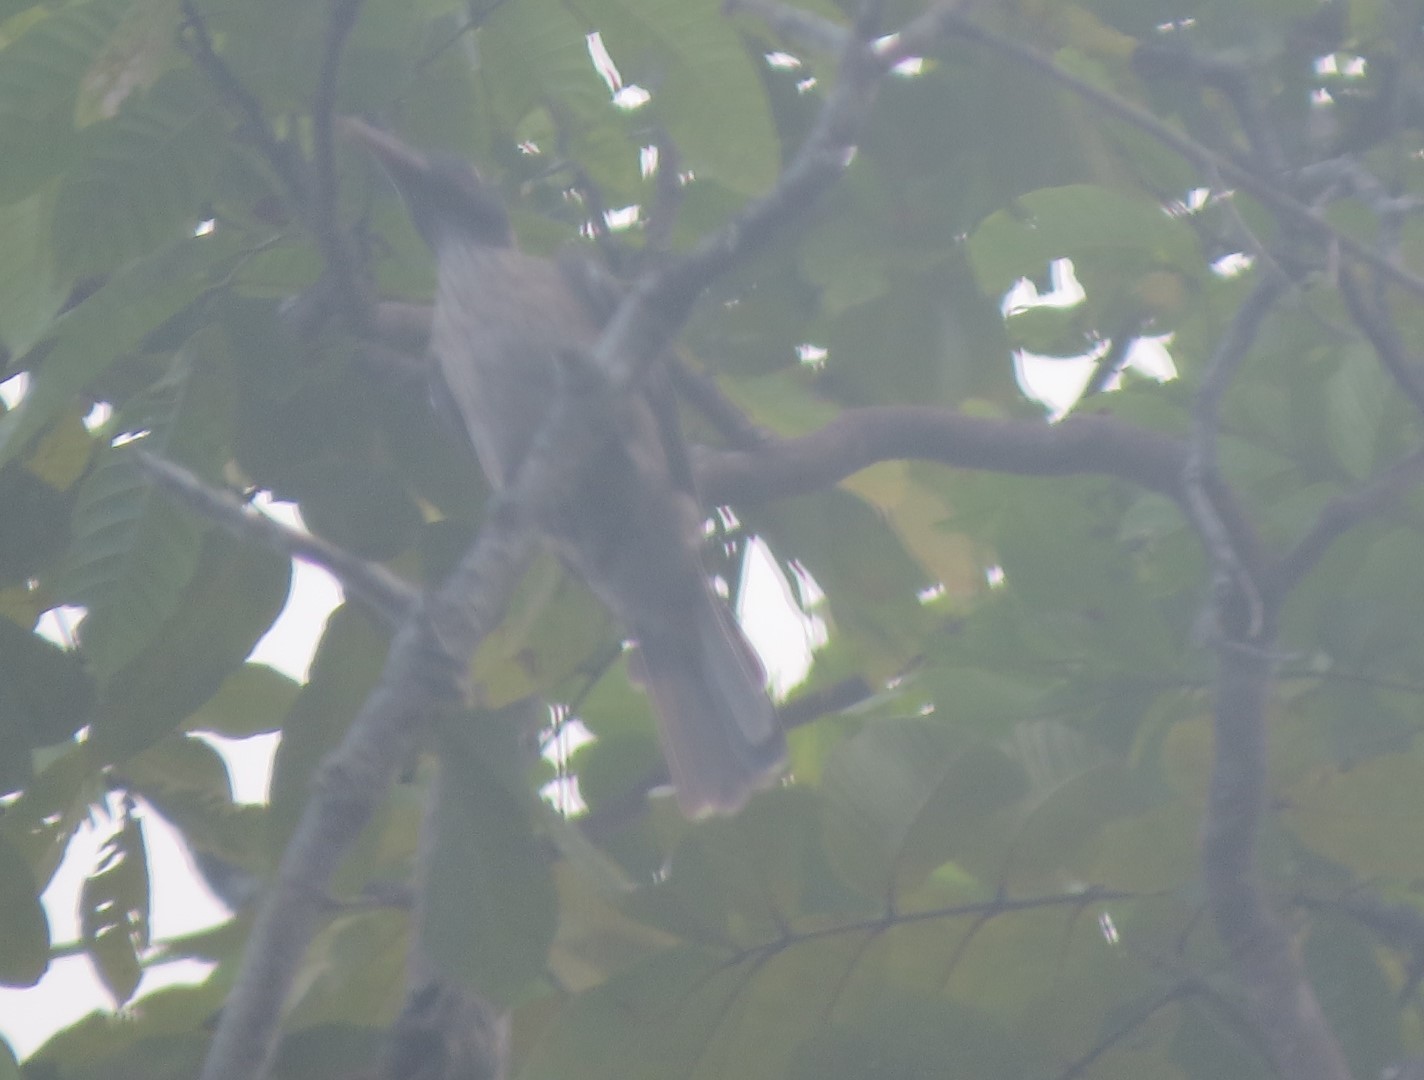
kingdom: Animalia
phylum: Chordata
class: Aves
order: Passeriformes
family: Oriolidae
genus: Oriolus
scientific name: Oriolus szalayi
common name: Brown oriole
